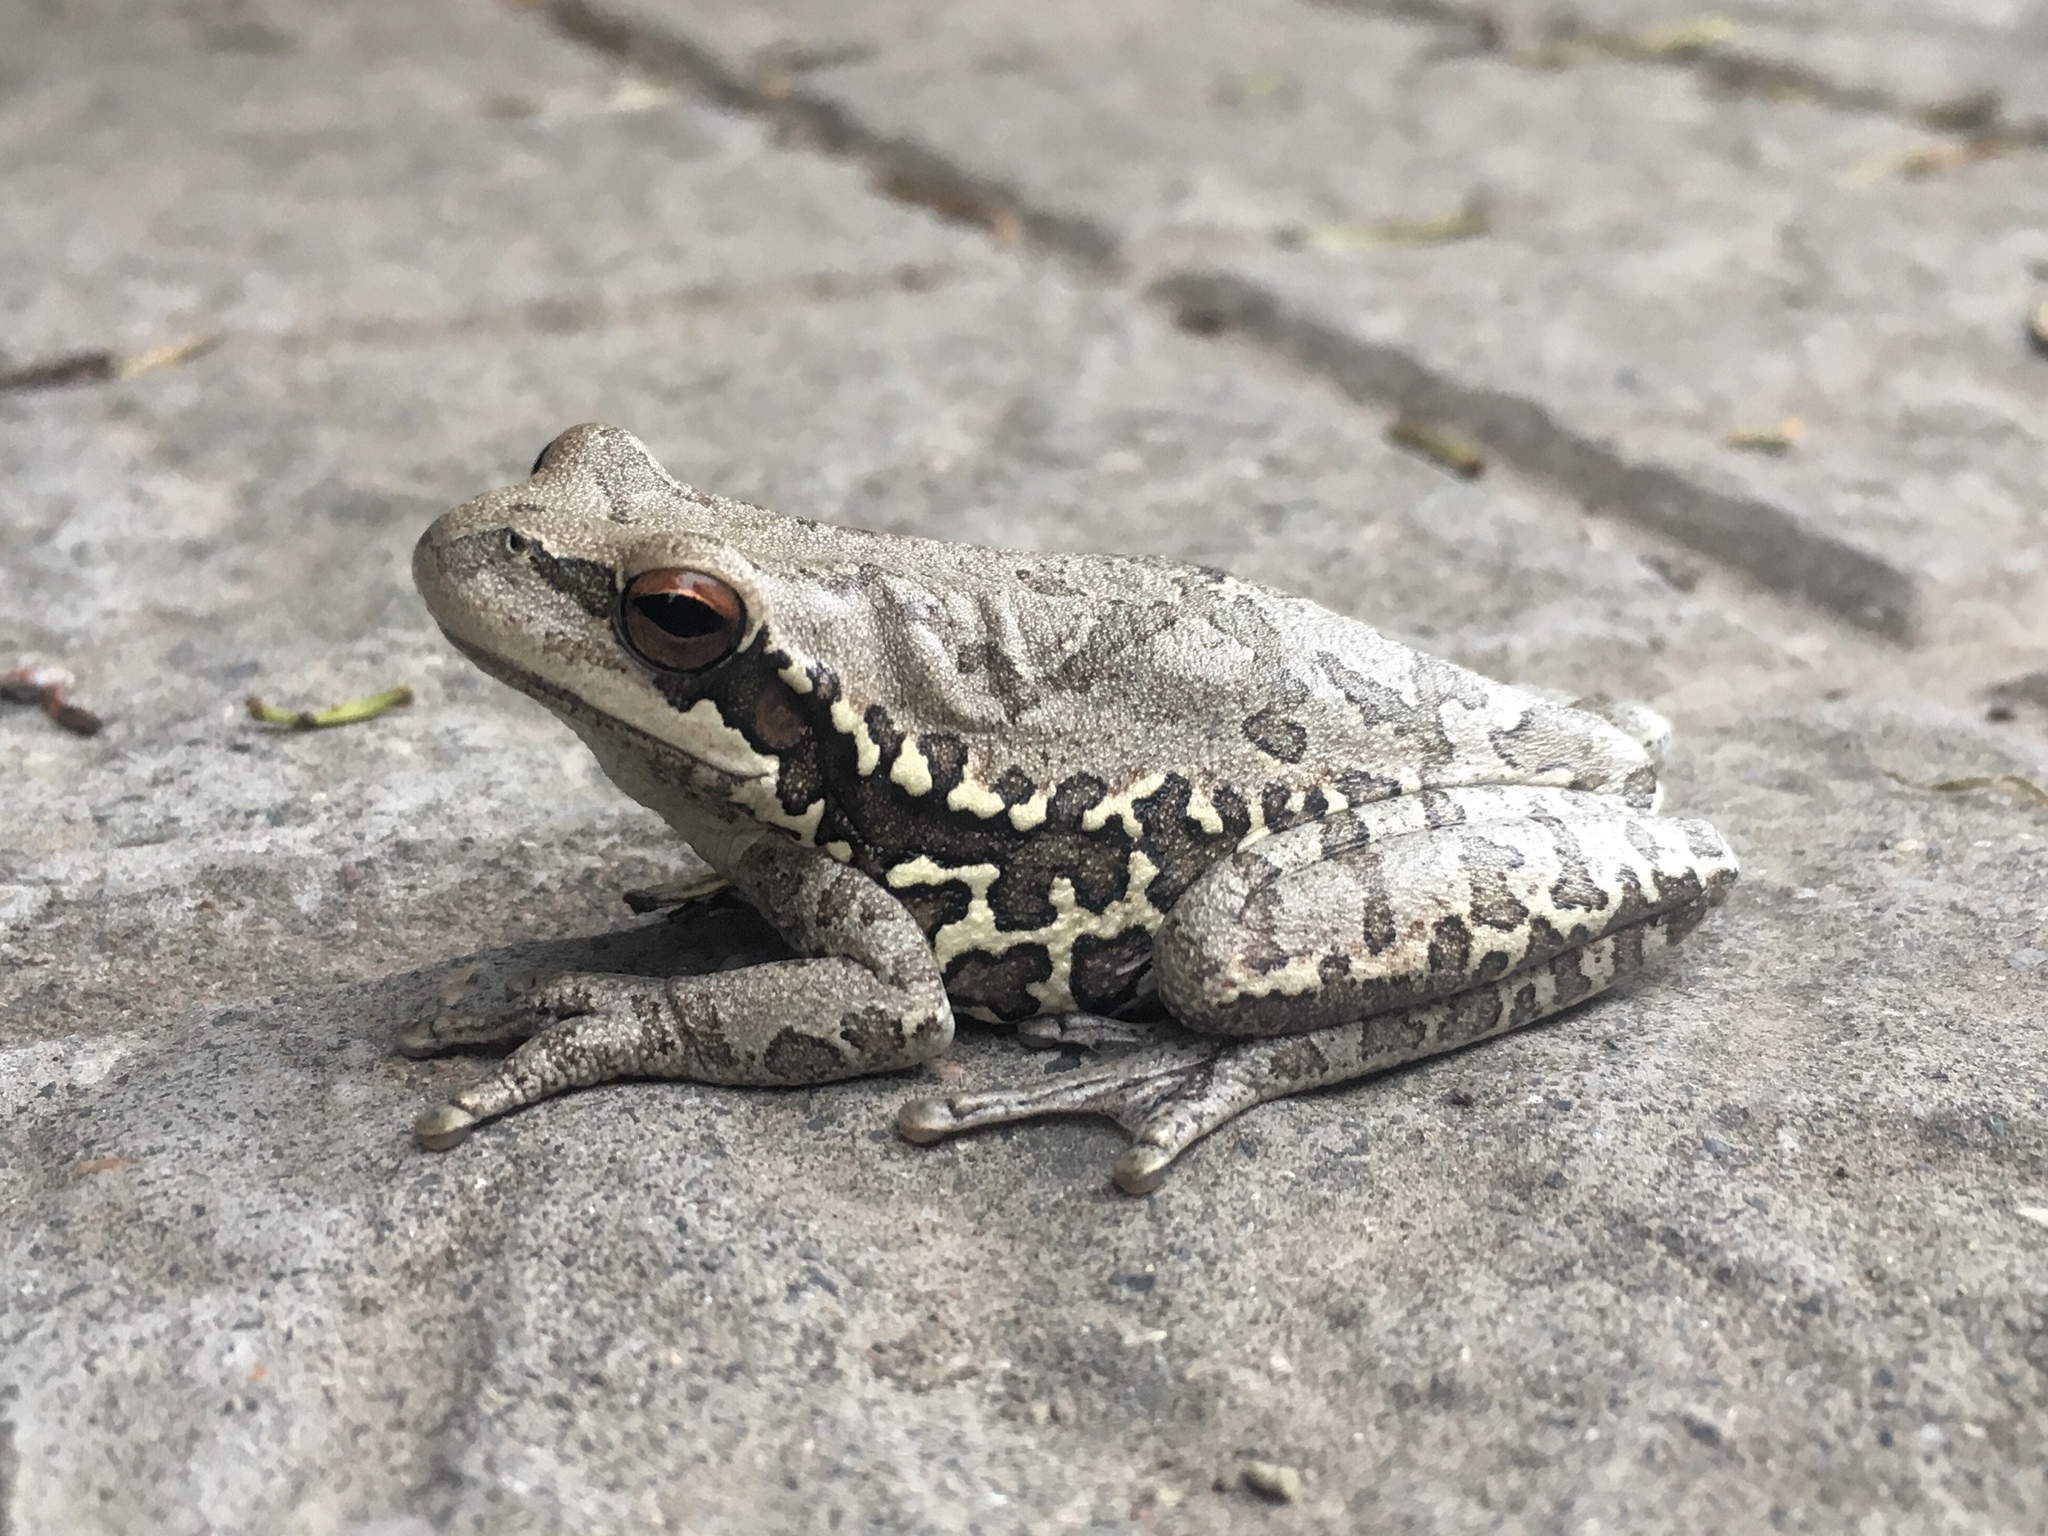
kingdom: Animalia
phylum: Chordata
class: Amphibia
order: Anura
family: Hylidae
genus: Boana
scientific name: Boana pulchella
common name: Montevideo treefrog
